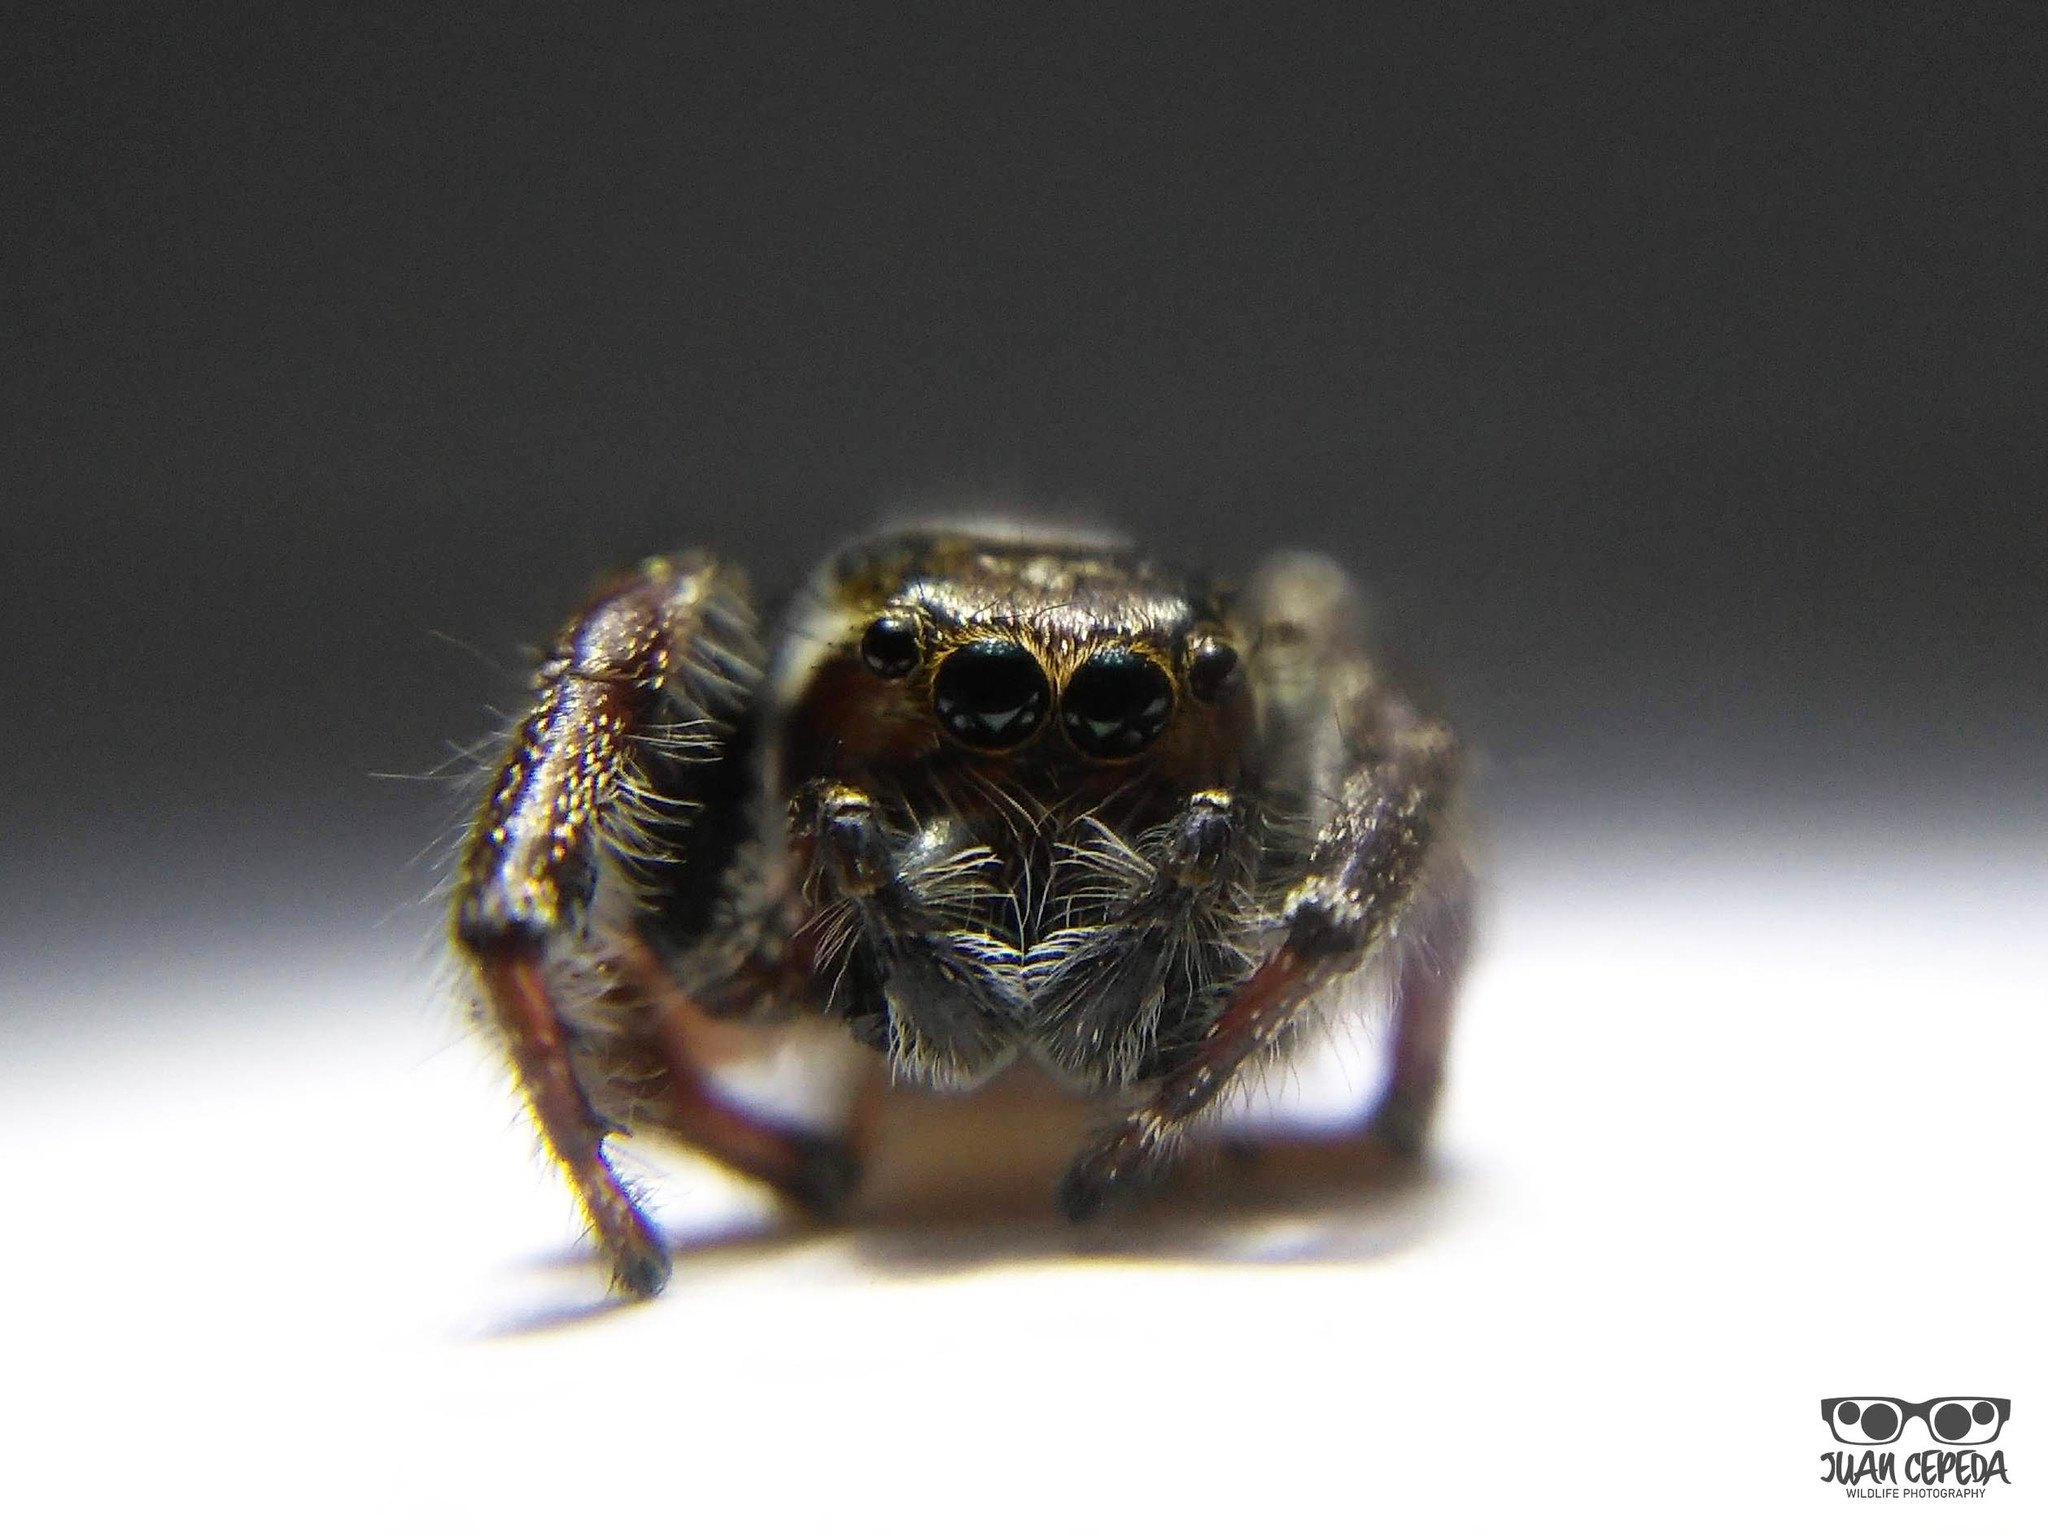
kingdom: Animalia
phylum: Arthropoda
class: Arachnida
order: Araneae
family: Salticidae
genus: Eris
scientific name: Eris militaris
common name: Bronze jumper
